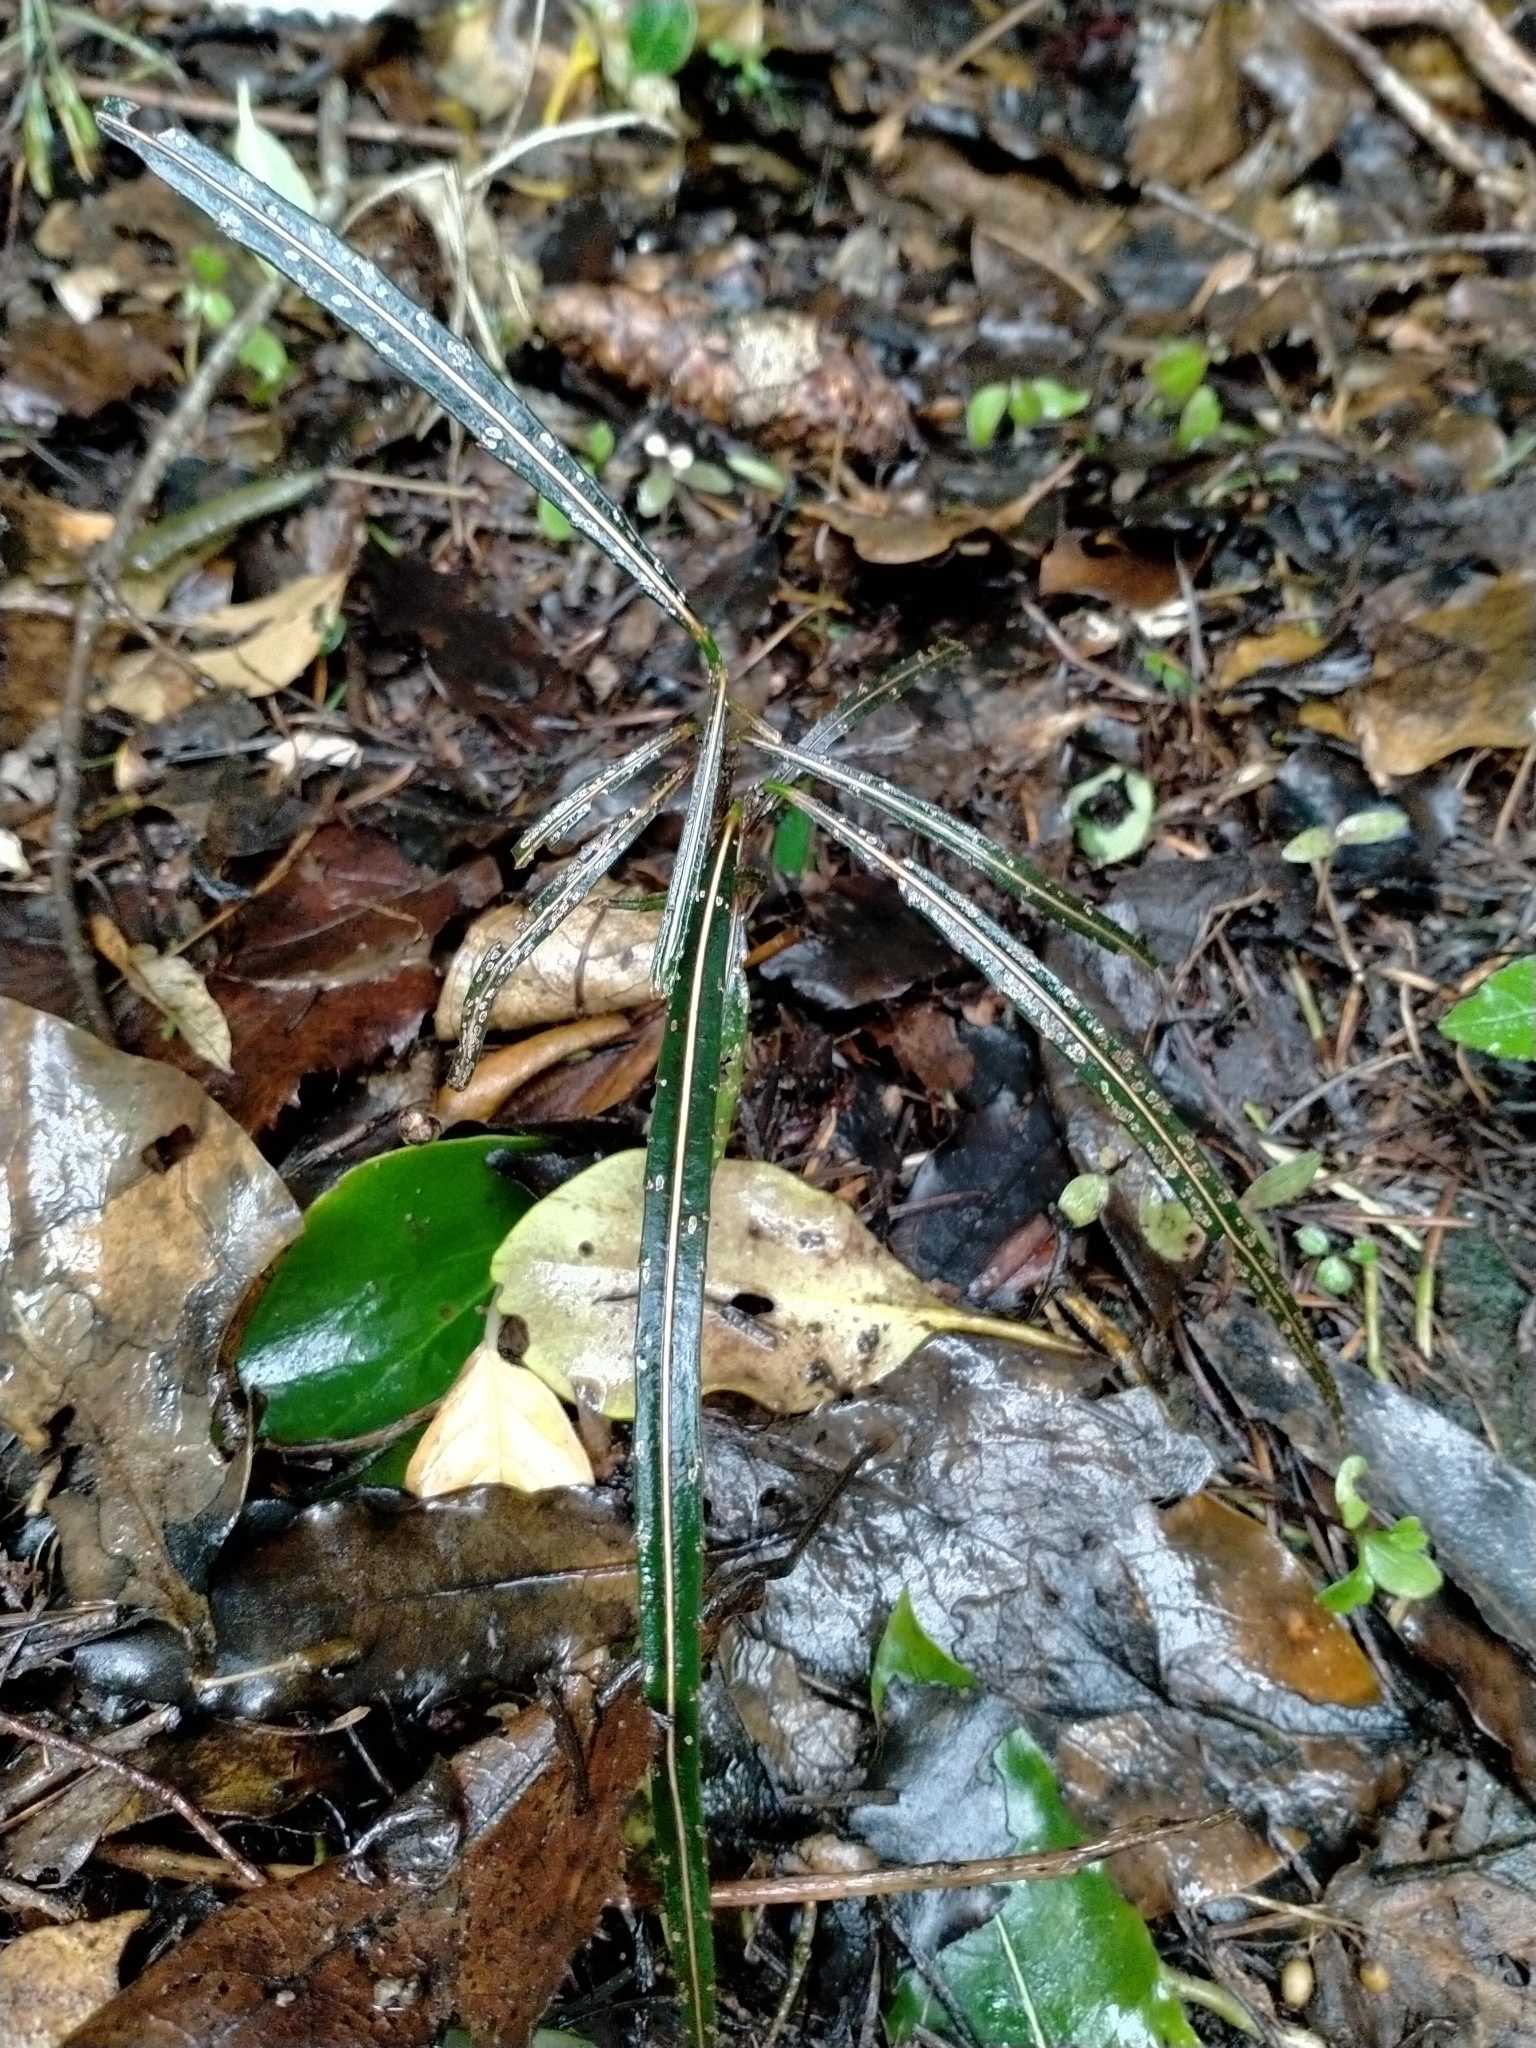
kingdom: Plantae
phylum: Tracheophyta
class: Magnoliopsida
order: Apiales
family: Araliaceae
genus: Pseudopanax
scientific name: Pseudopanax crassifolius
